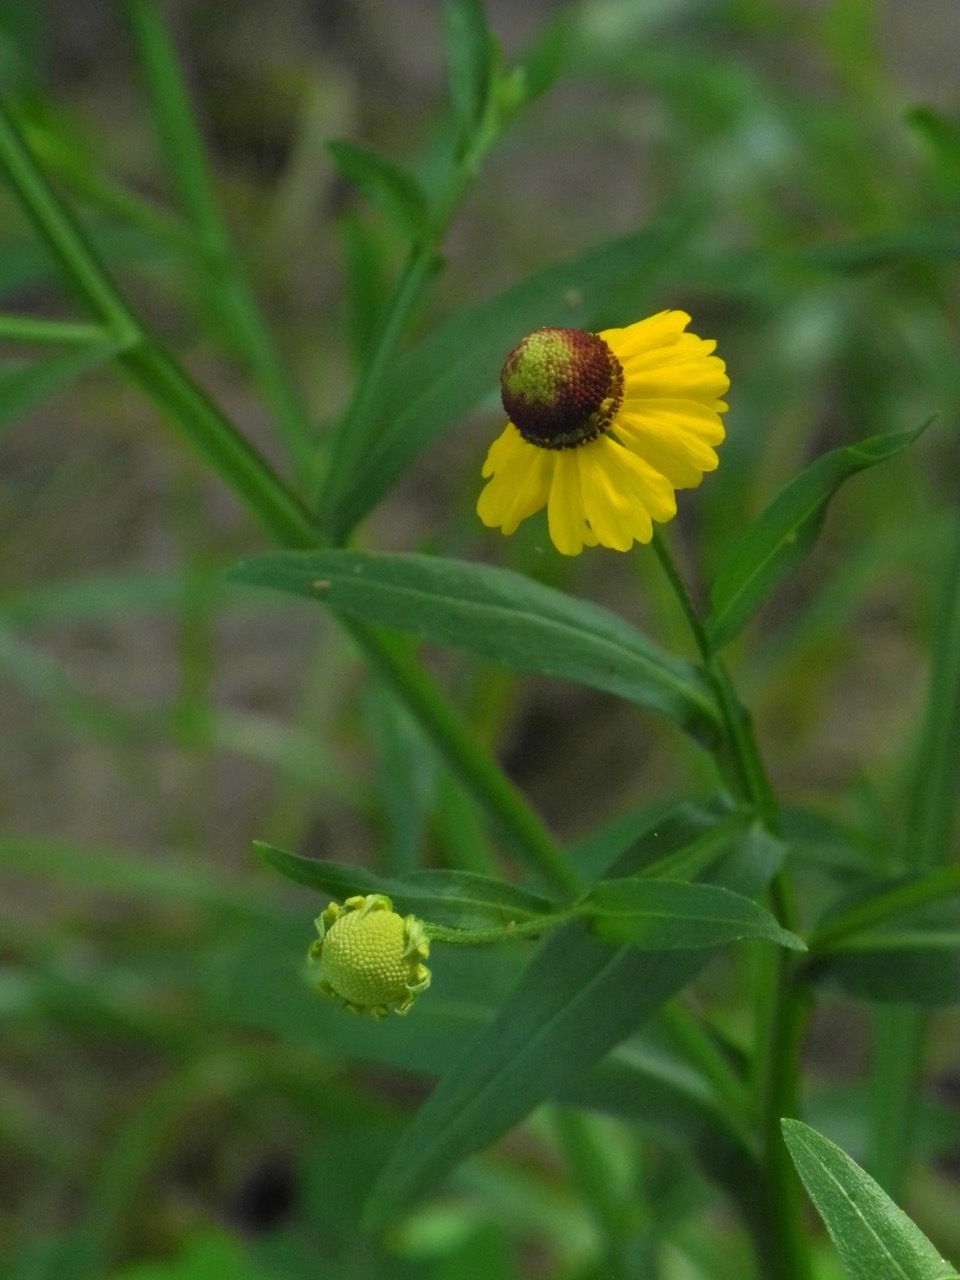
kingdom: Plantae
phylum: Tracheophyta
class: Magnoliopsida
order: Asterales
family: Asteraceae
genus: Helenium
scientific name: Helenium flexuosum
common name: Naked-flowered sneezeweed
